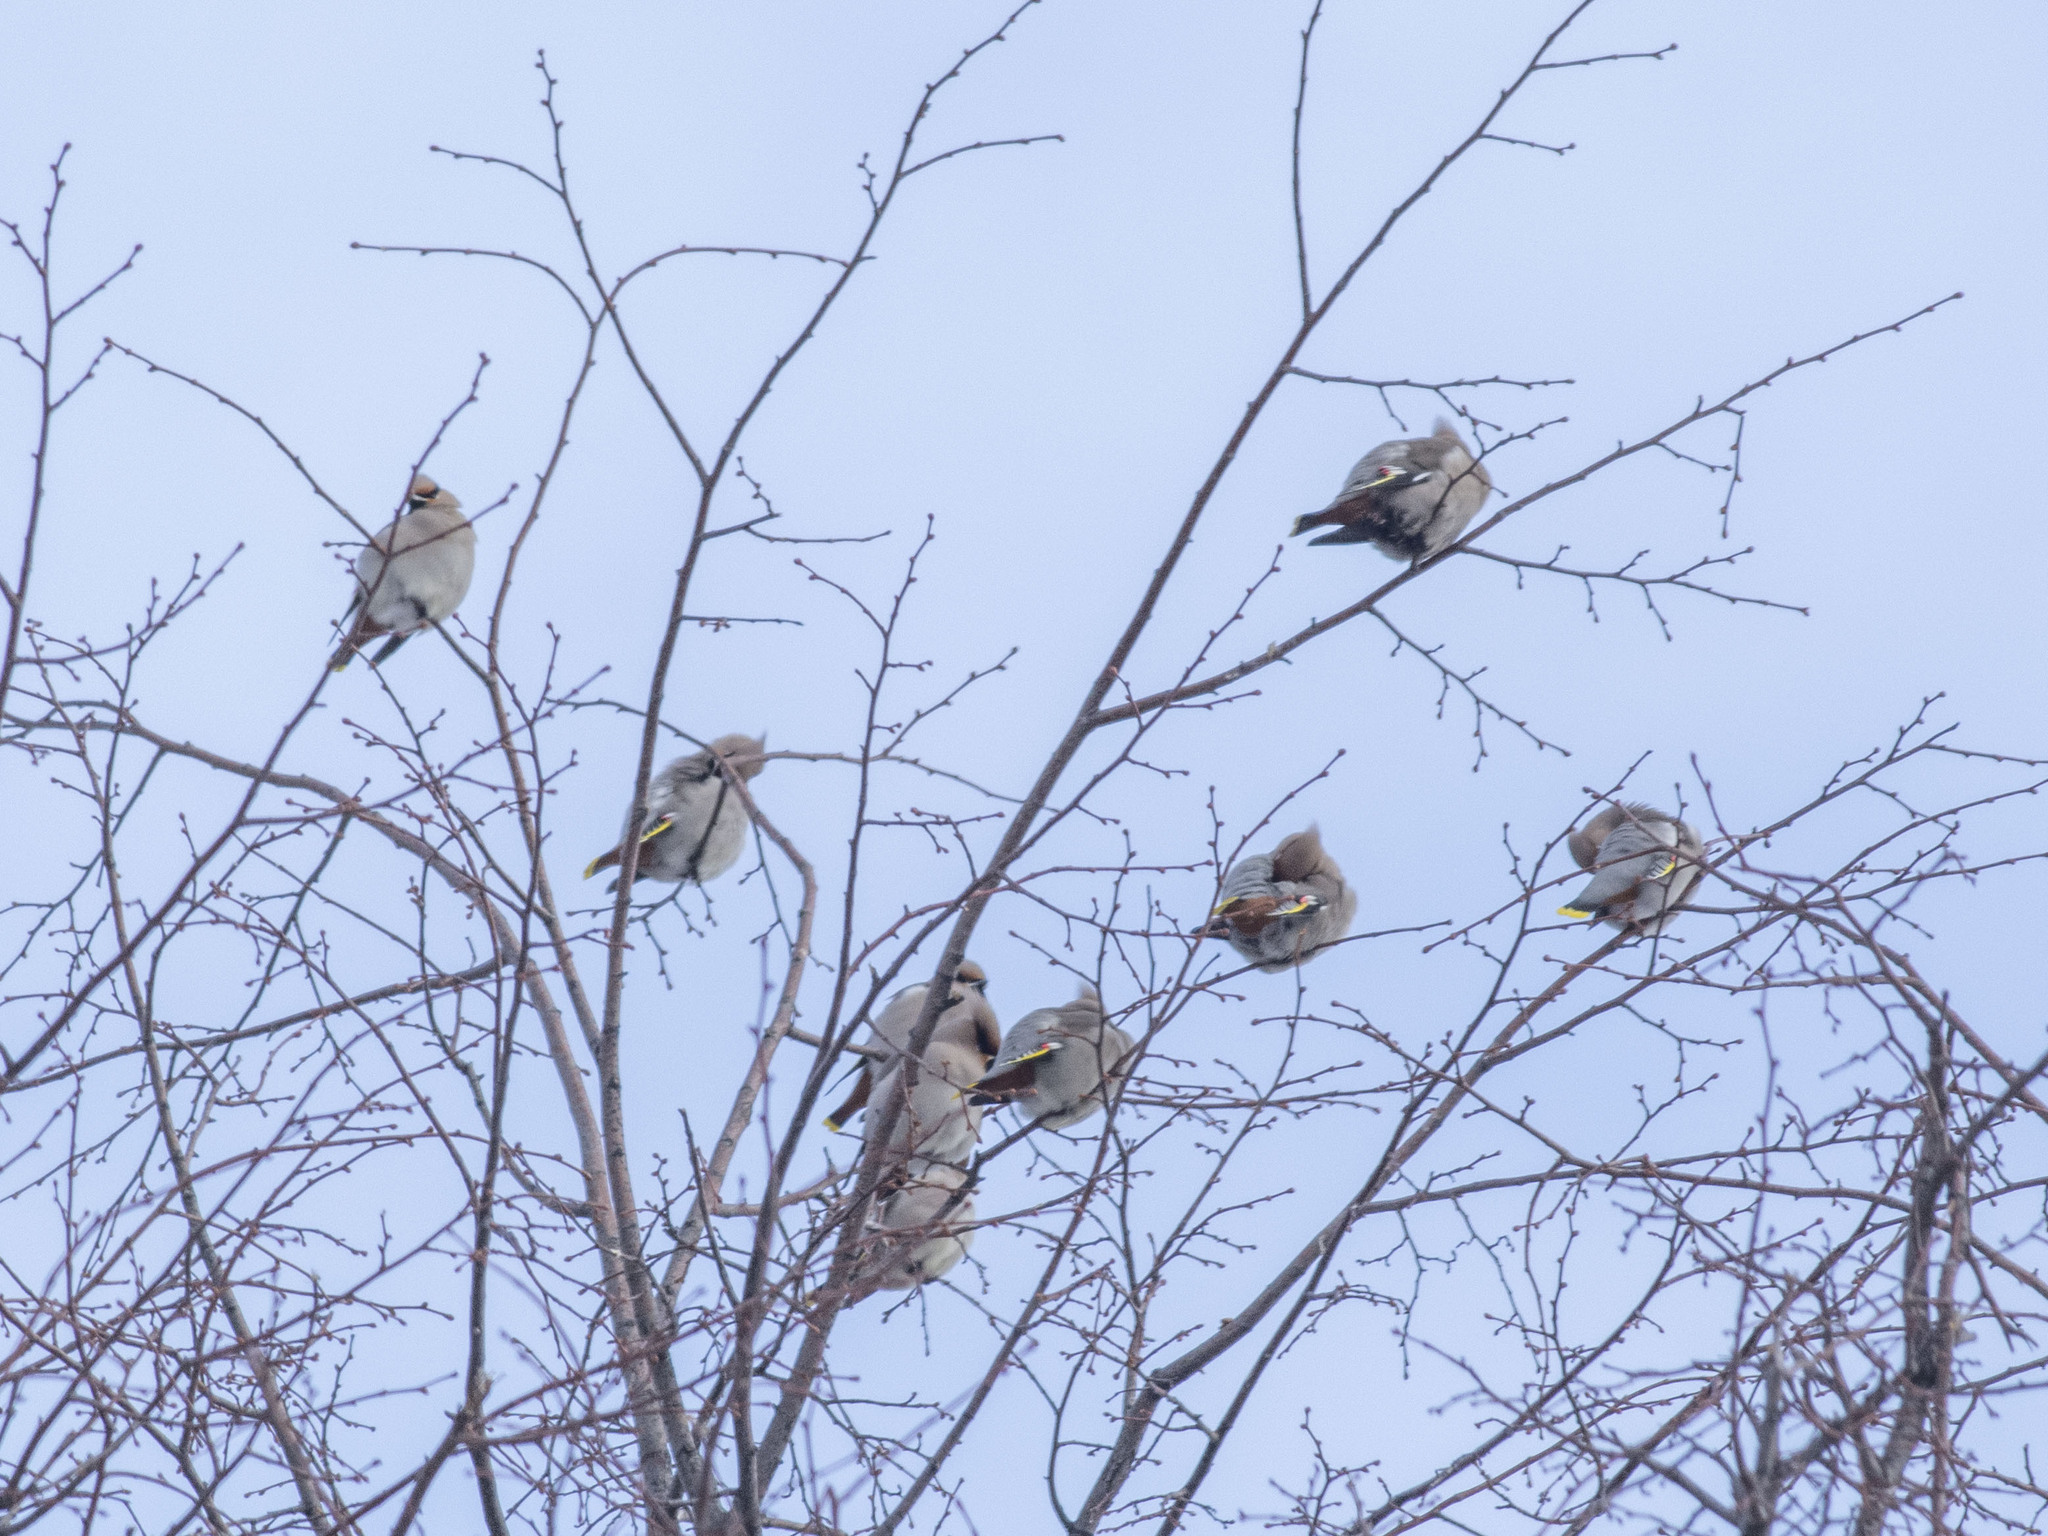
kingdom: Animalia
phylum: Chordata
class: Aves
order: Passeriformes
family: Bombycillidae
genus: Bombycilla
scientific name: Bombycilla garrulus
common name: Bohemian waxwing
